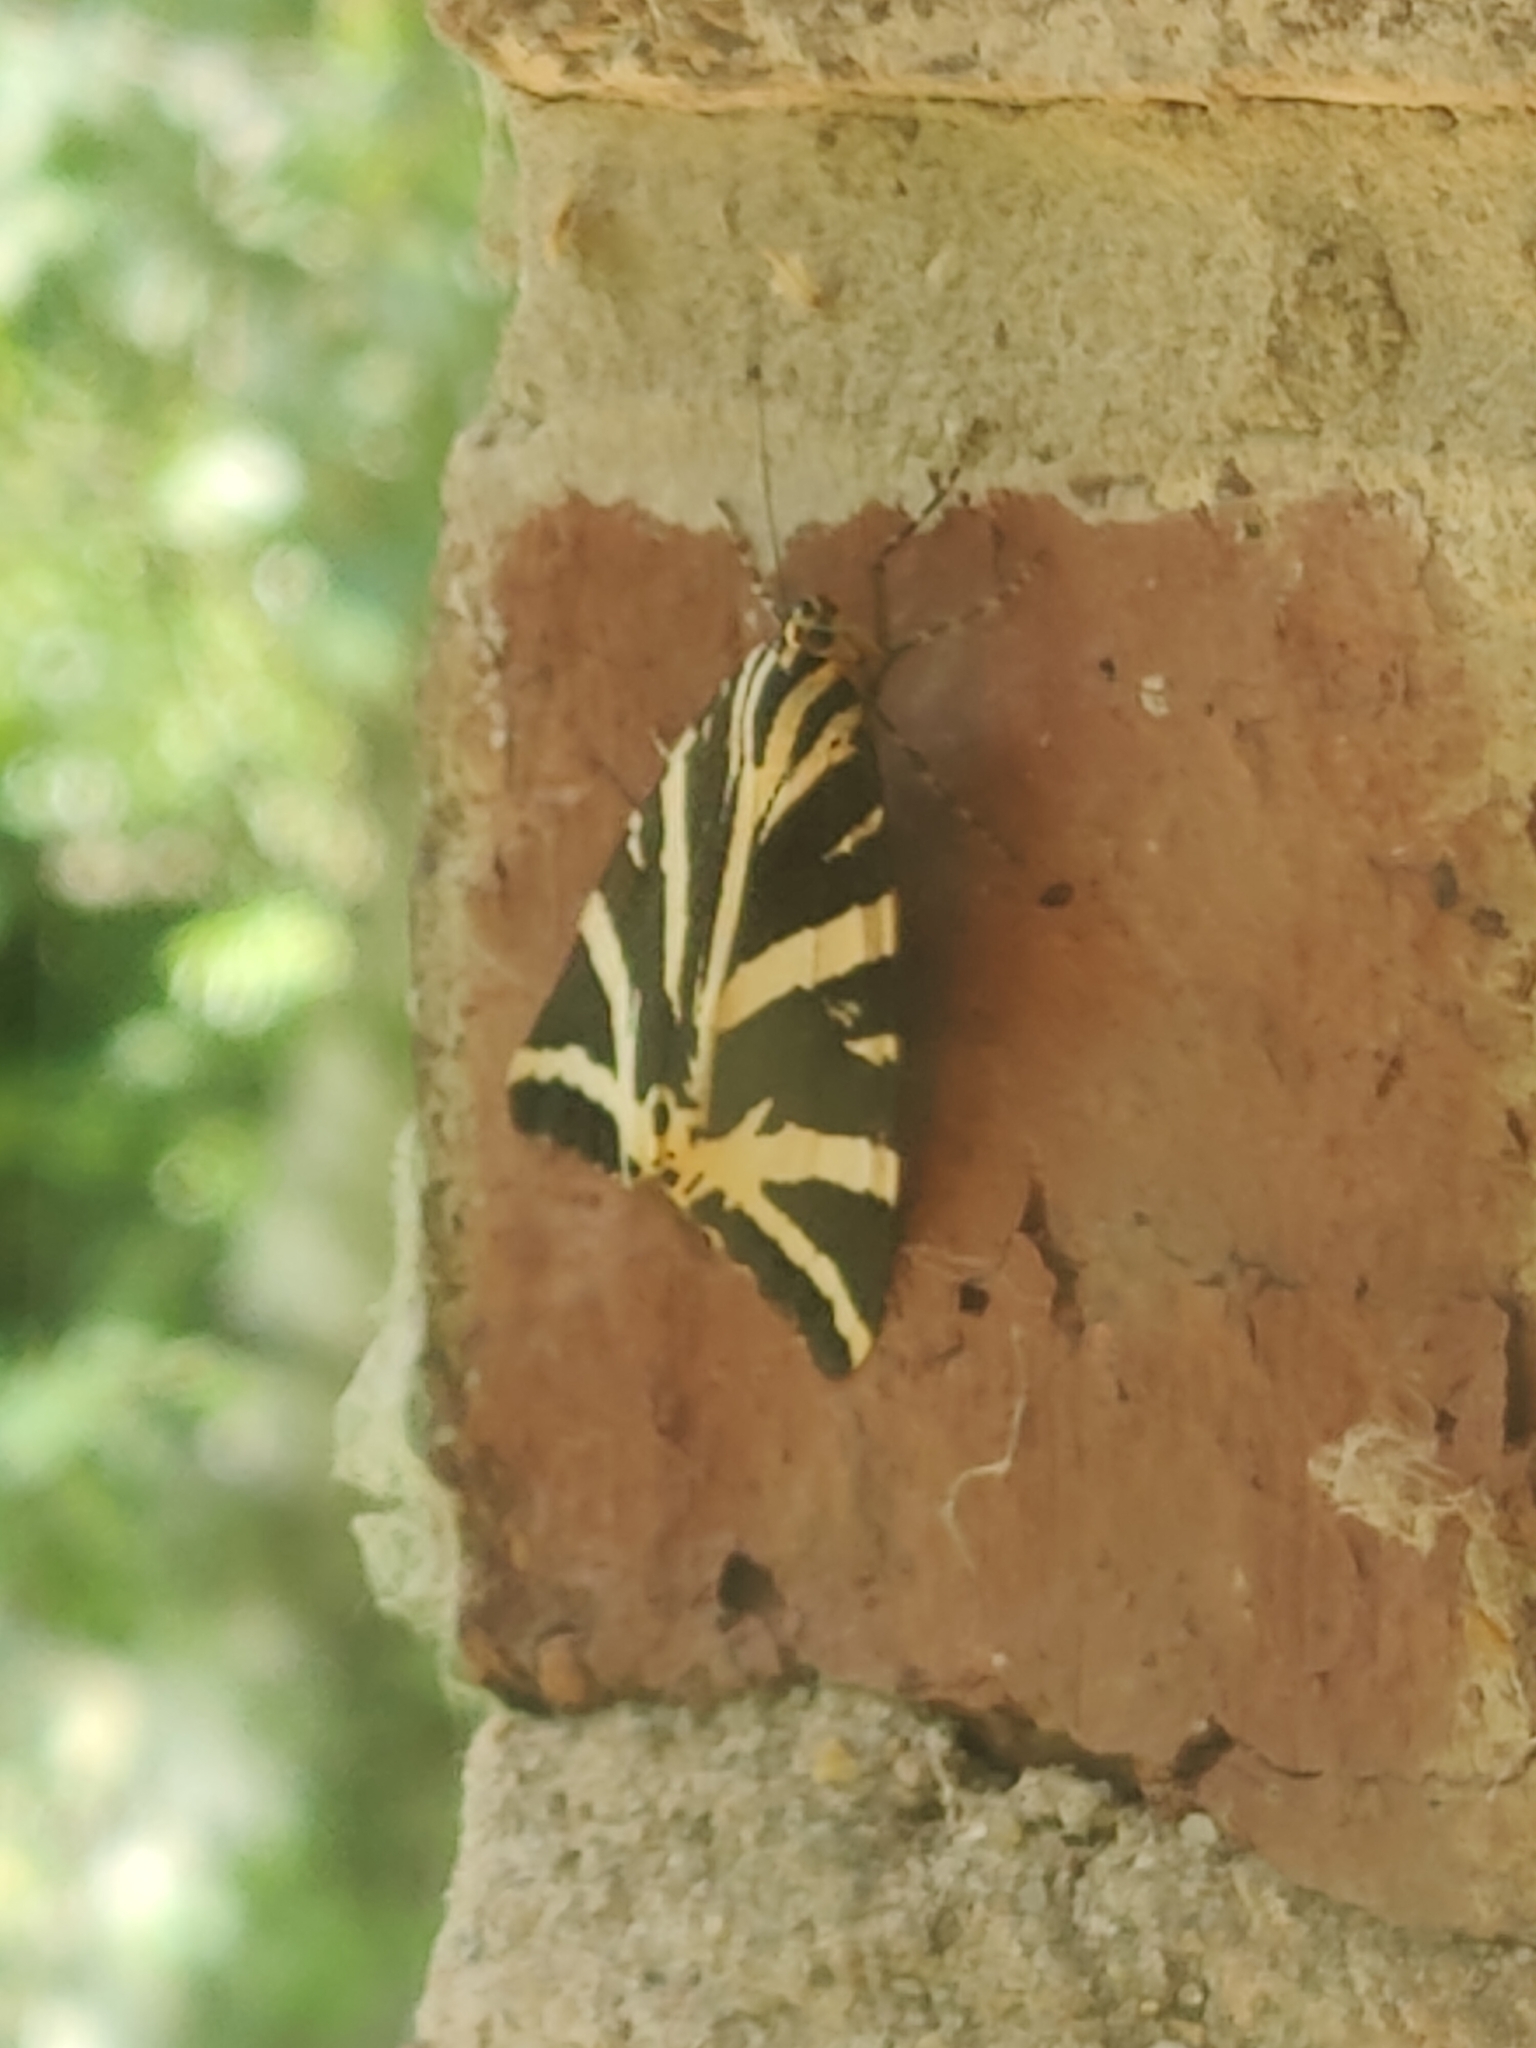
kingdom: Animalia
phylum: Arthropoda
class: Insecta
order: Lepidoptera
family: Erebidae
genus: Euplagia
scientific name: Euplagia quadripunctaria
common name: Jersey tiger
